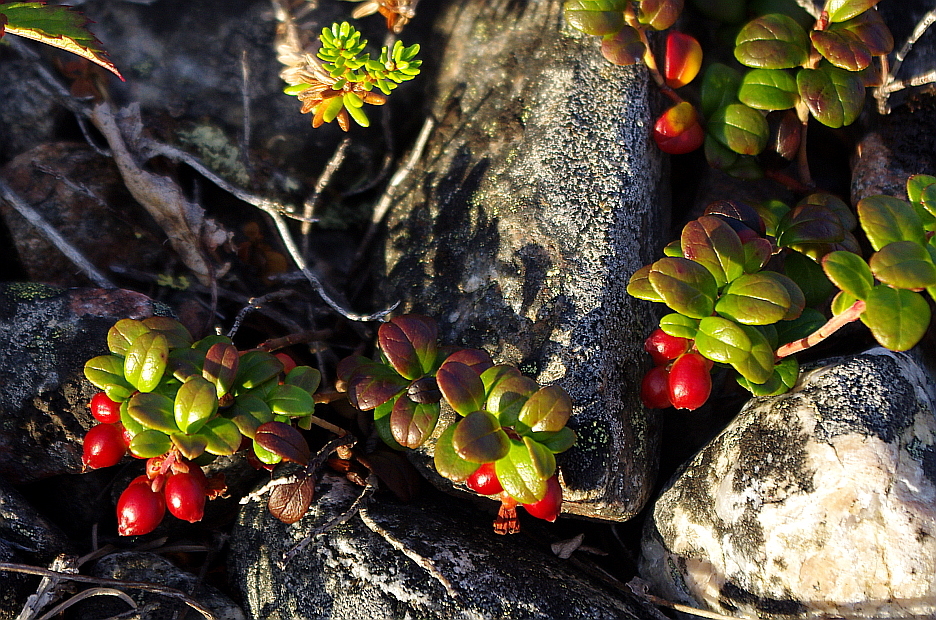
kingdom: Plantae
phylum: Tracheophyta
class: Magnoliopsida
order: Ericales
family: Ericaceae
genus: Vaccinium
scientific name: Vaccinium vitis-idaea
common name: Cowberry
